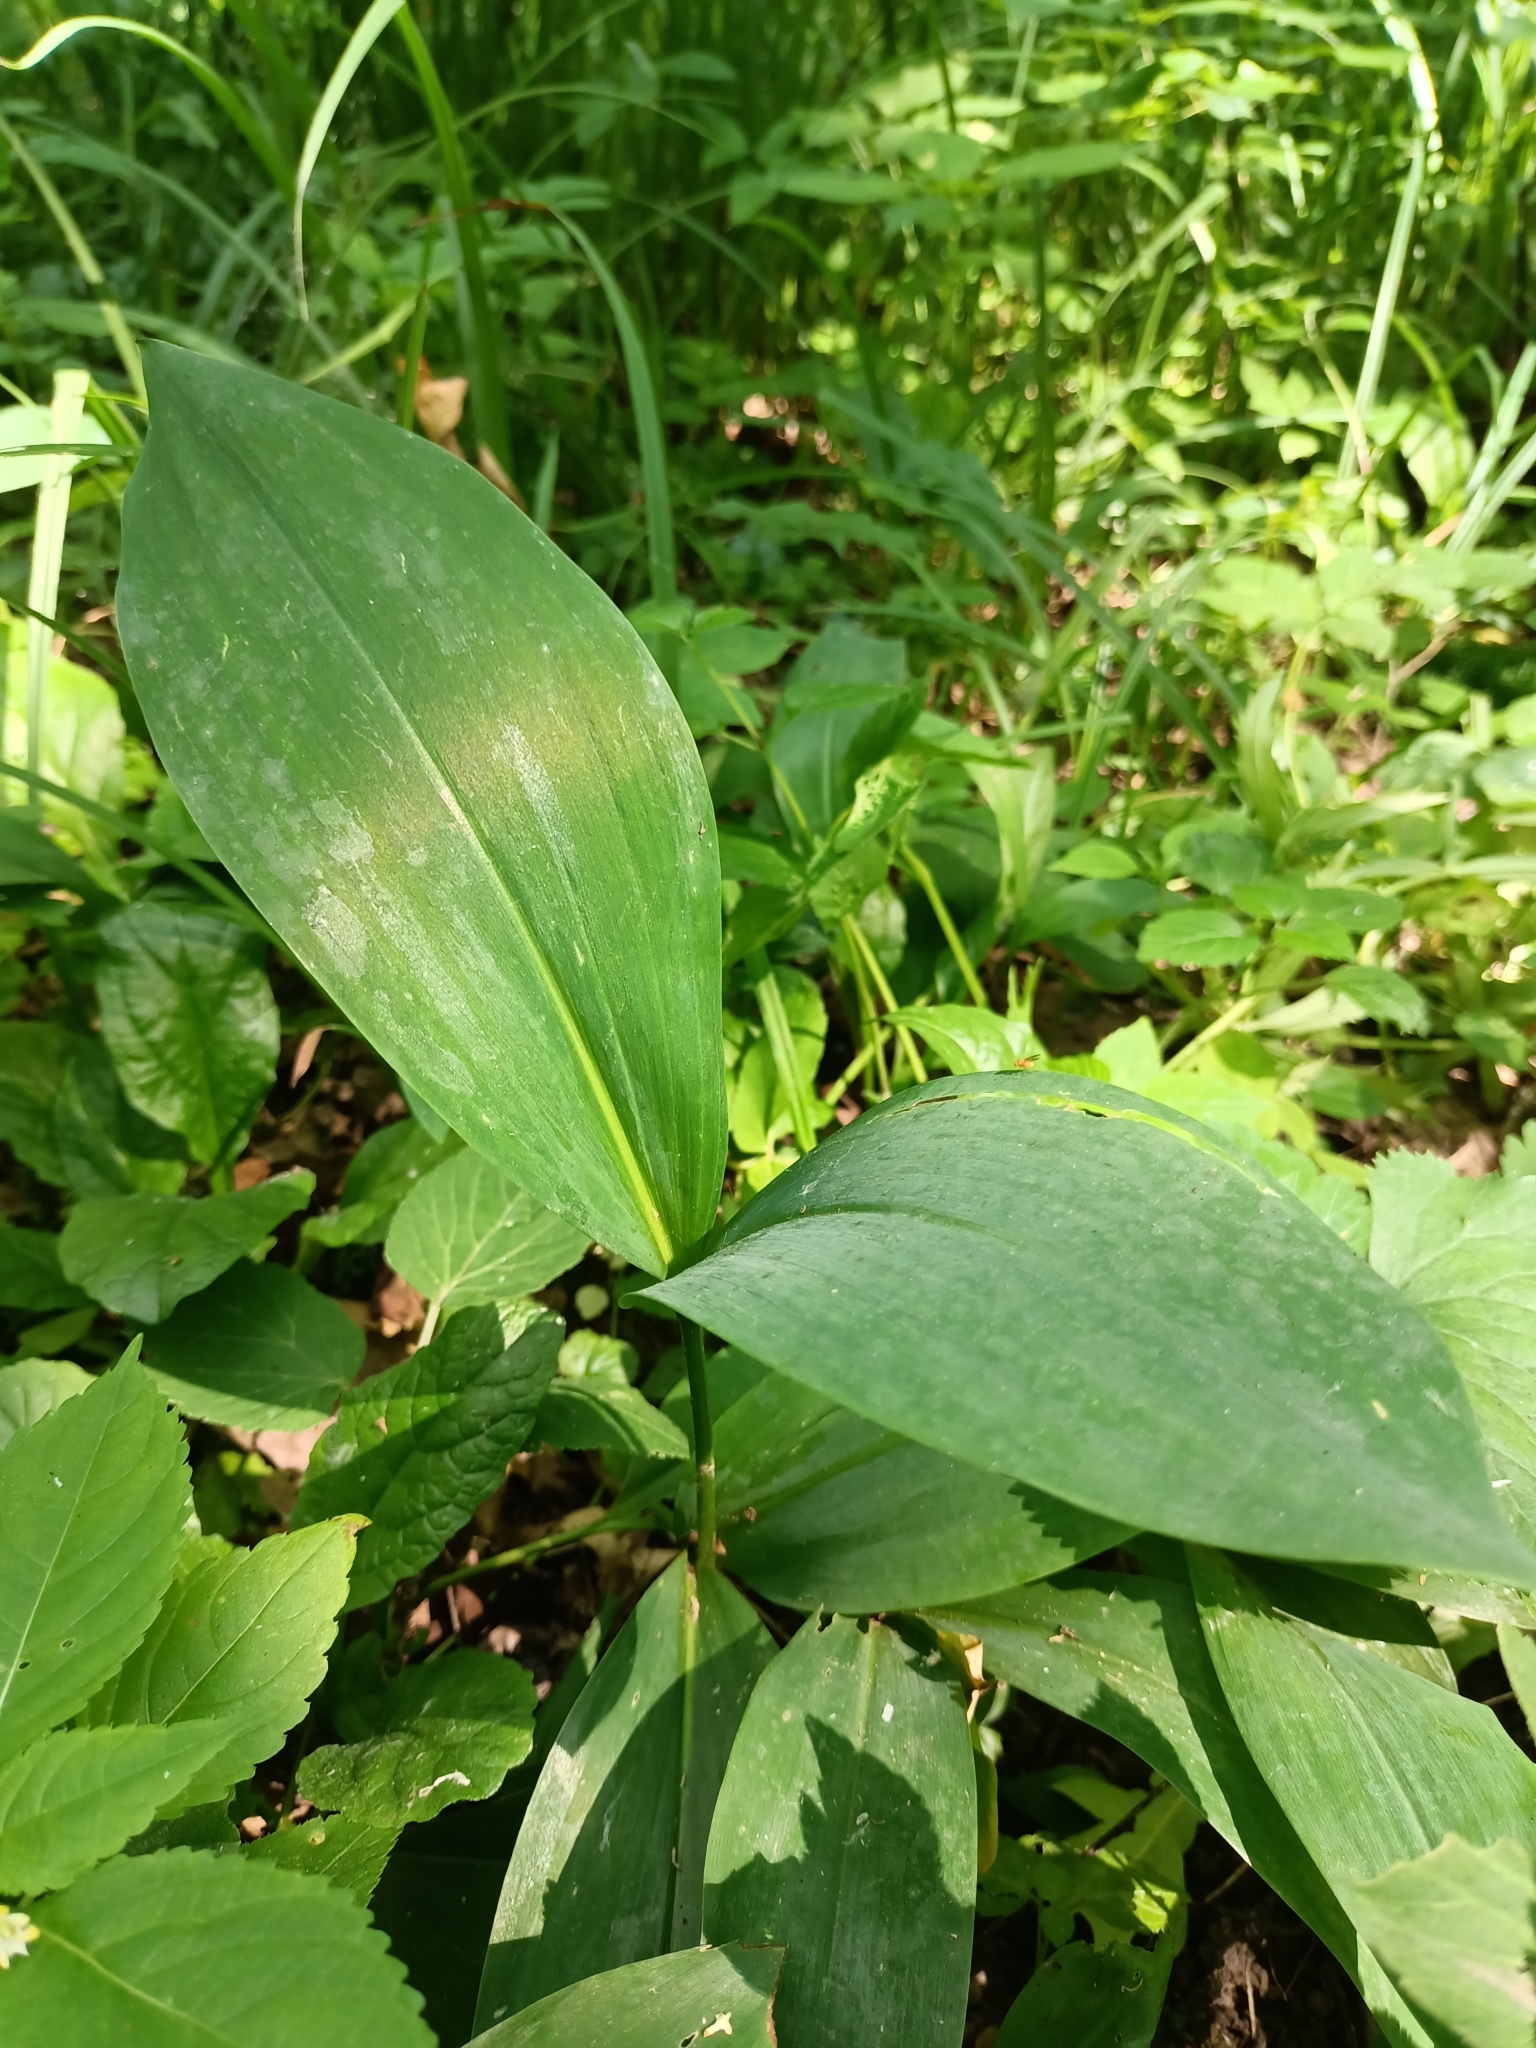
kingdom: Plantae
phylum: Tracheophyta
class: Liliopsida
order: Asparagales
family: Asparagaceae
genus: Convallaria
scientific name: Convallaria majalis
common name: Lily-of-the-valley
